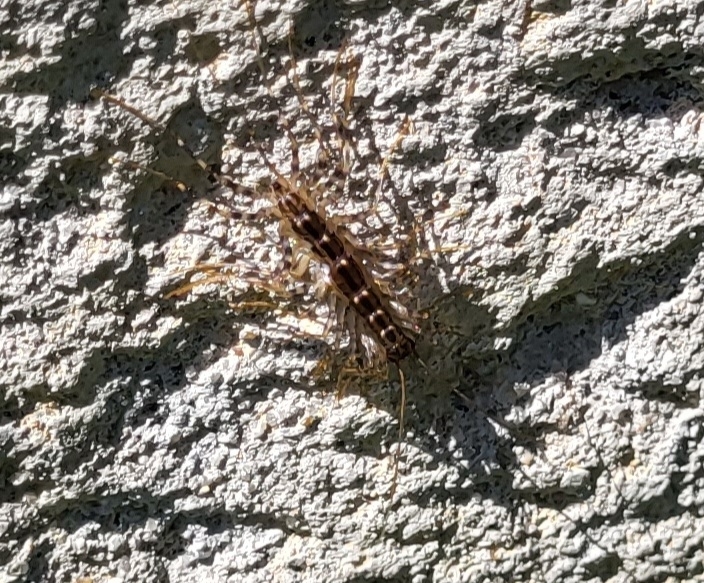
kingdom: Animalia
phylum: Arthropoda
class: Chilopoda
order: Scutigeromorpha
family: Scutigeridae
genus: Thereuonema
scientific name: Thereuonema tuberculata
